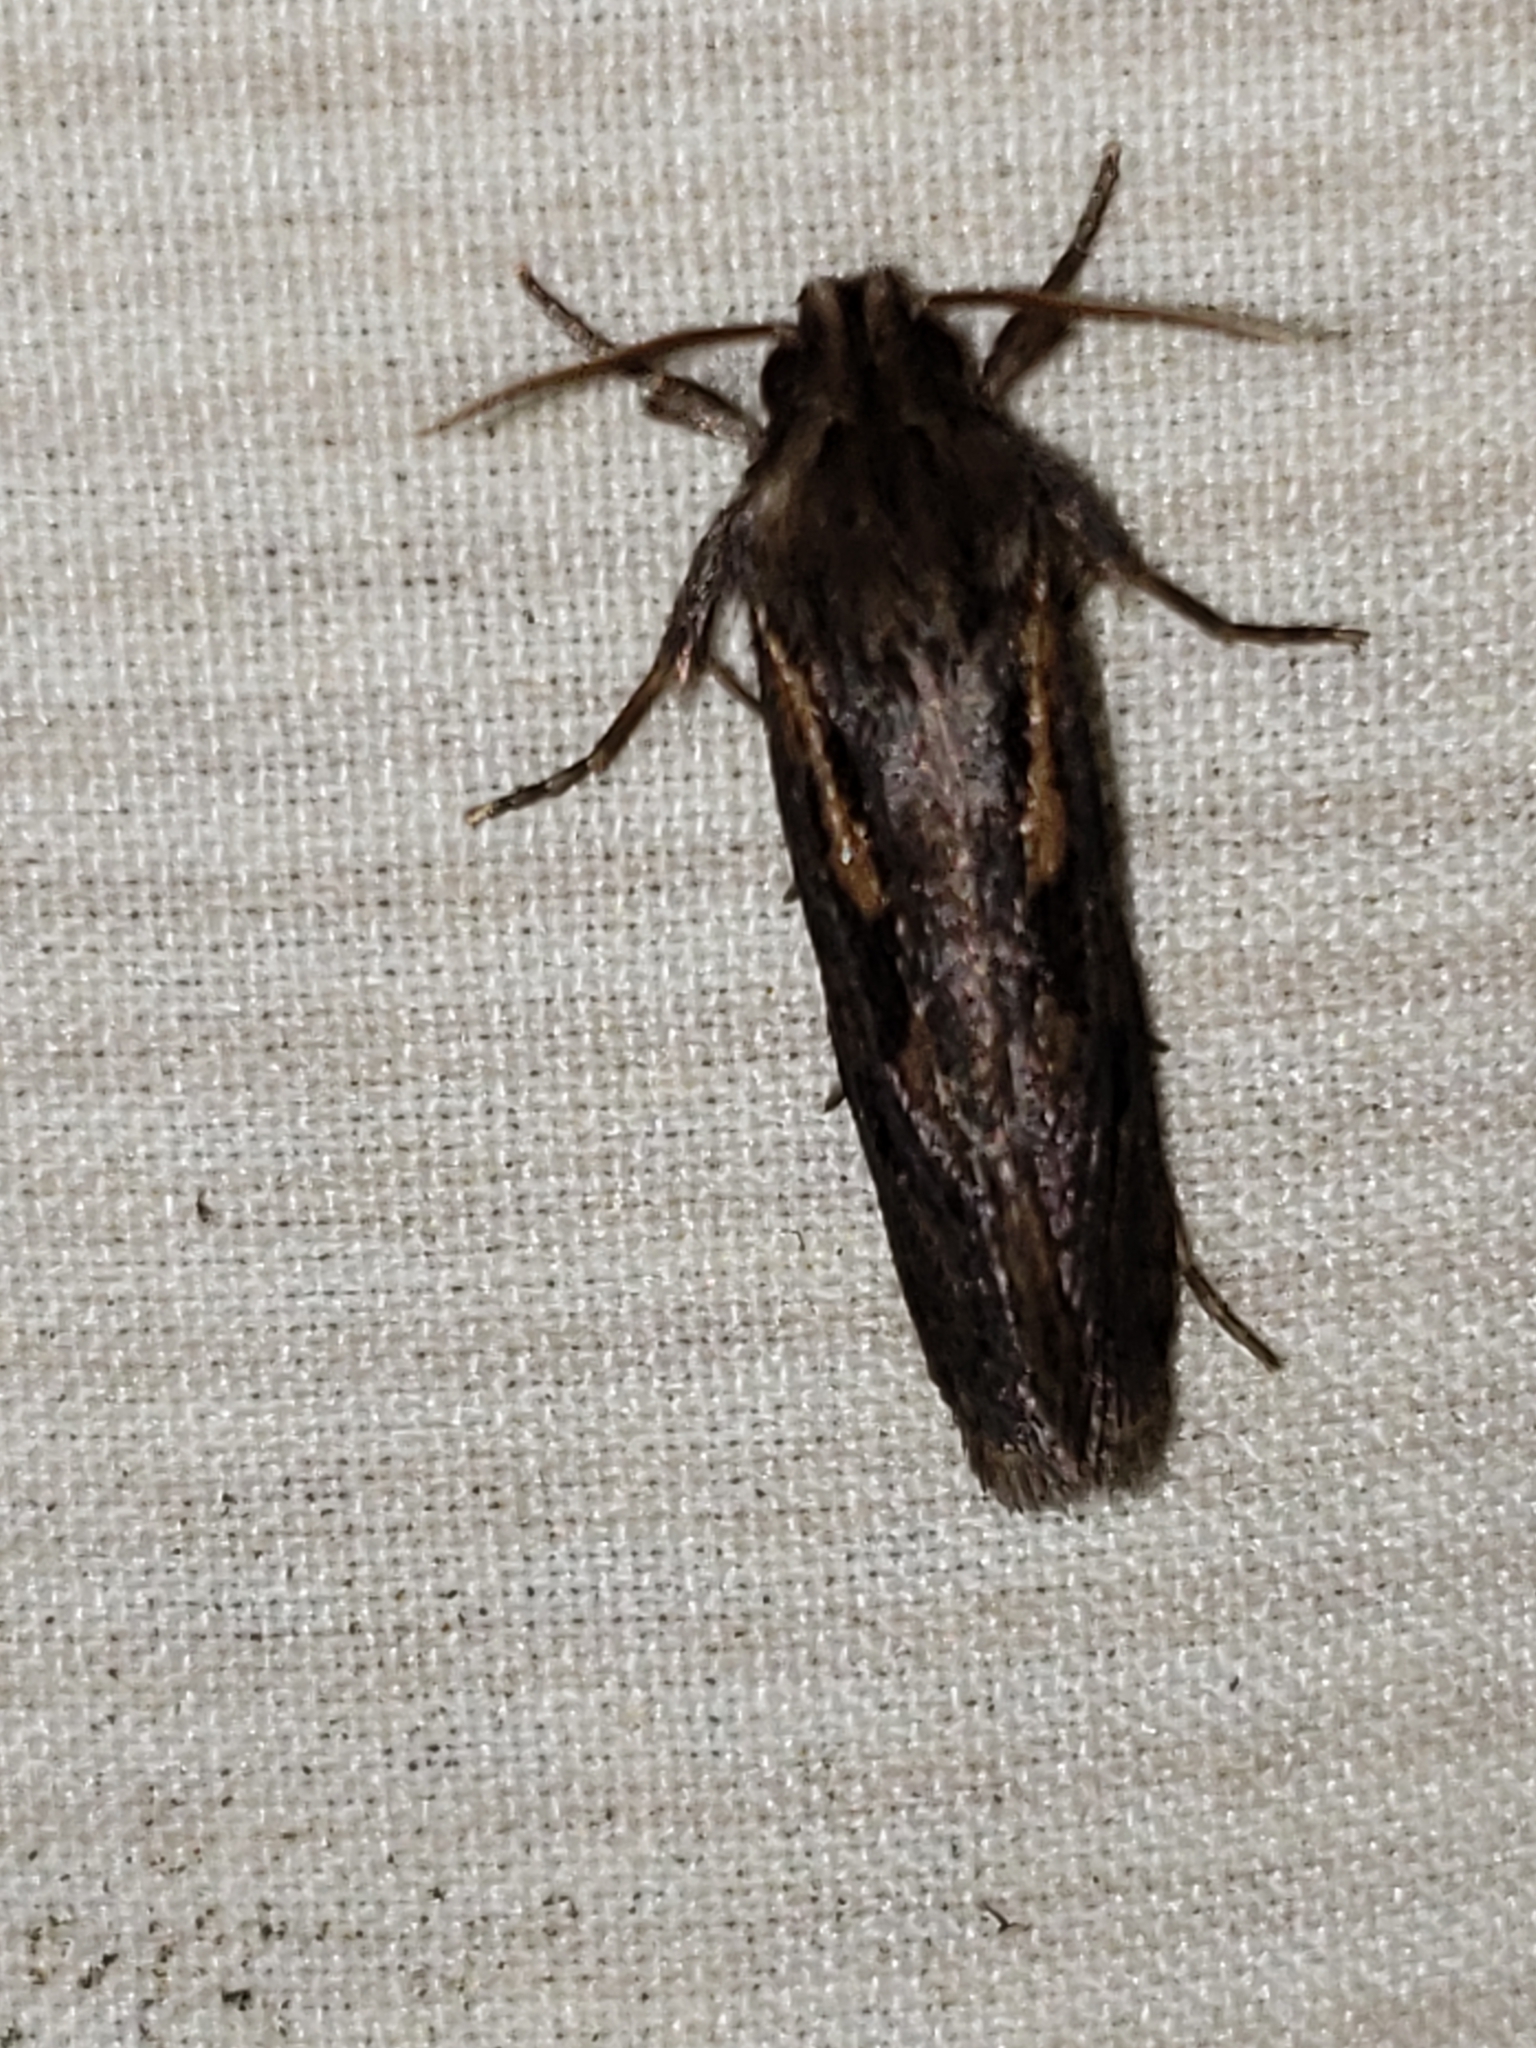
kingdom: Animalia
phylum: Arthropoda
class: Insecta
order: Lepidoptera
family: Tineidae
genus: Acrolophus
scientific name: Acrolophus popeanella
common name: Clemens' grass tubeworm moth
